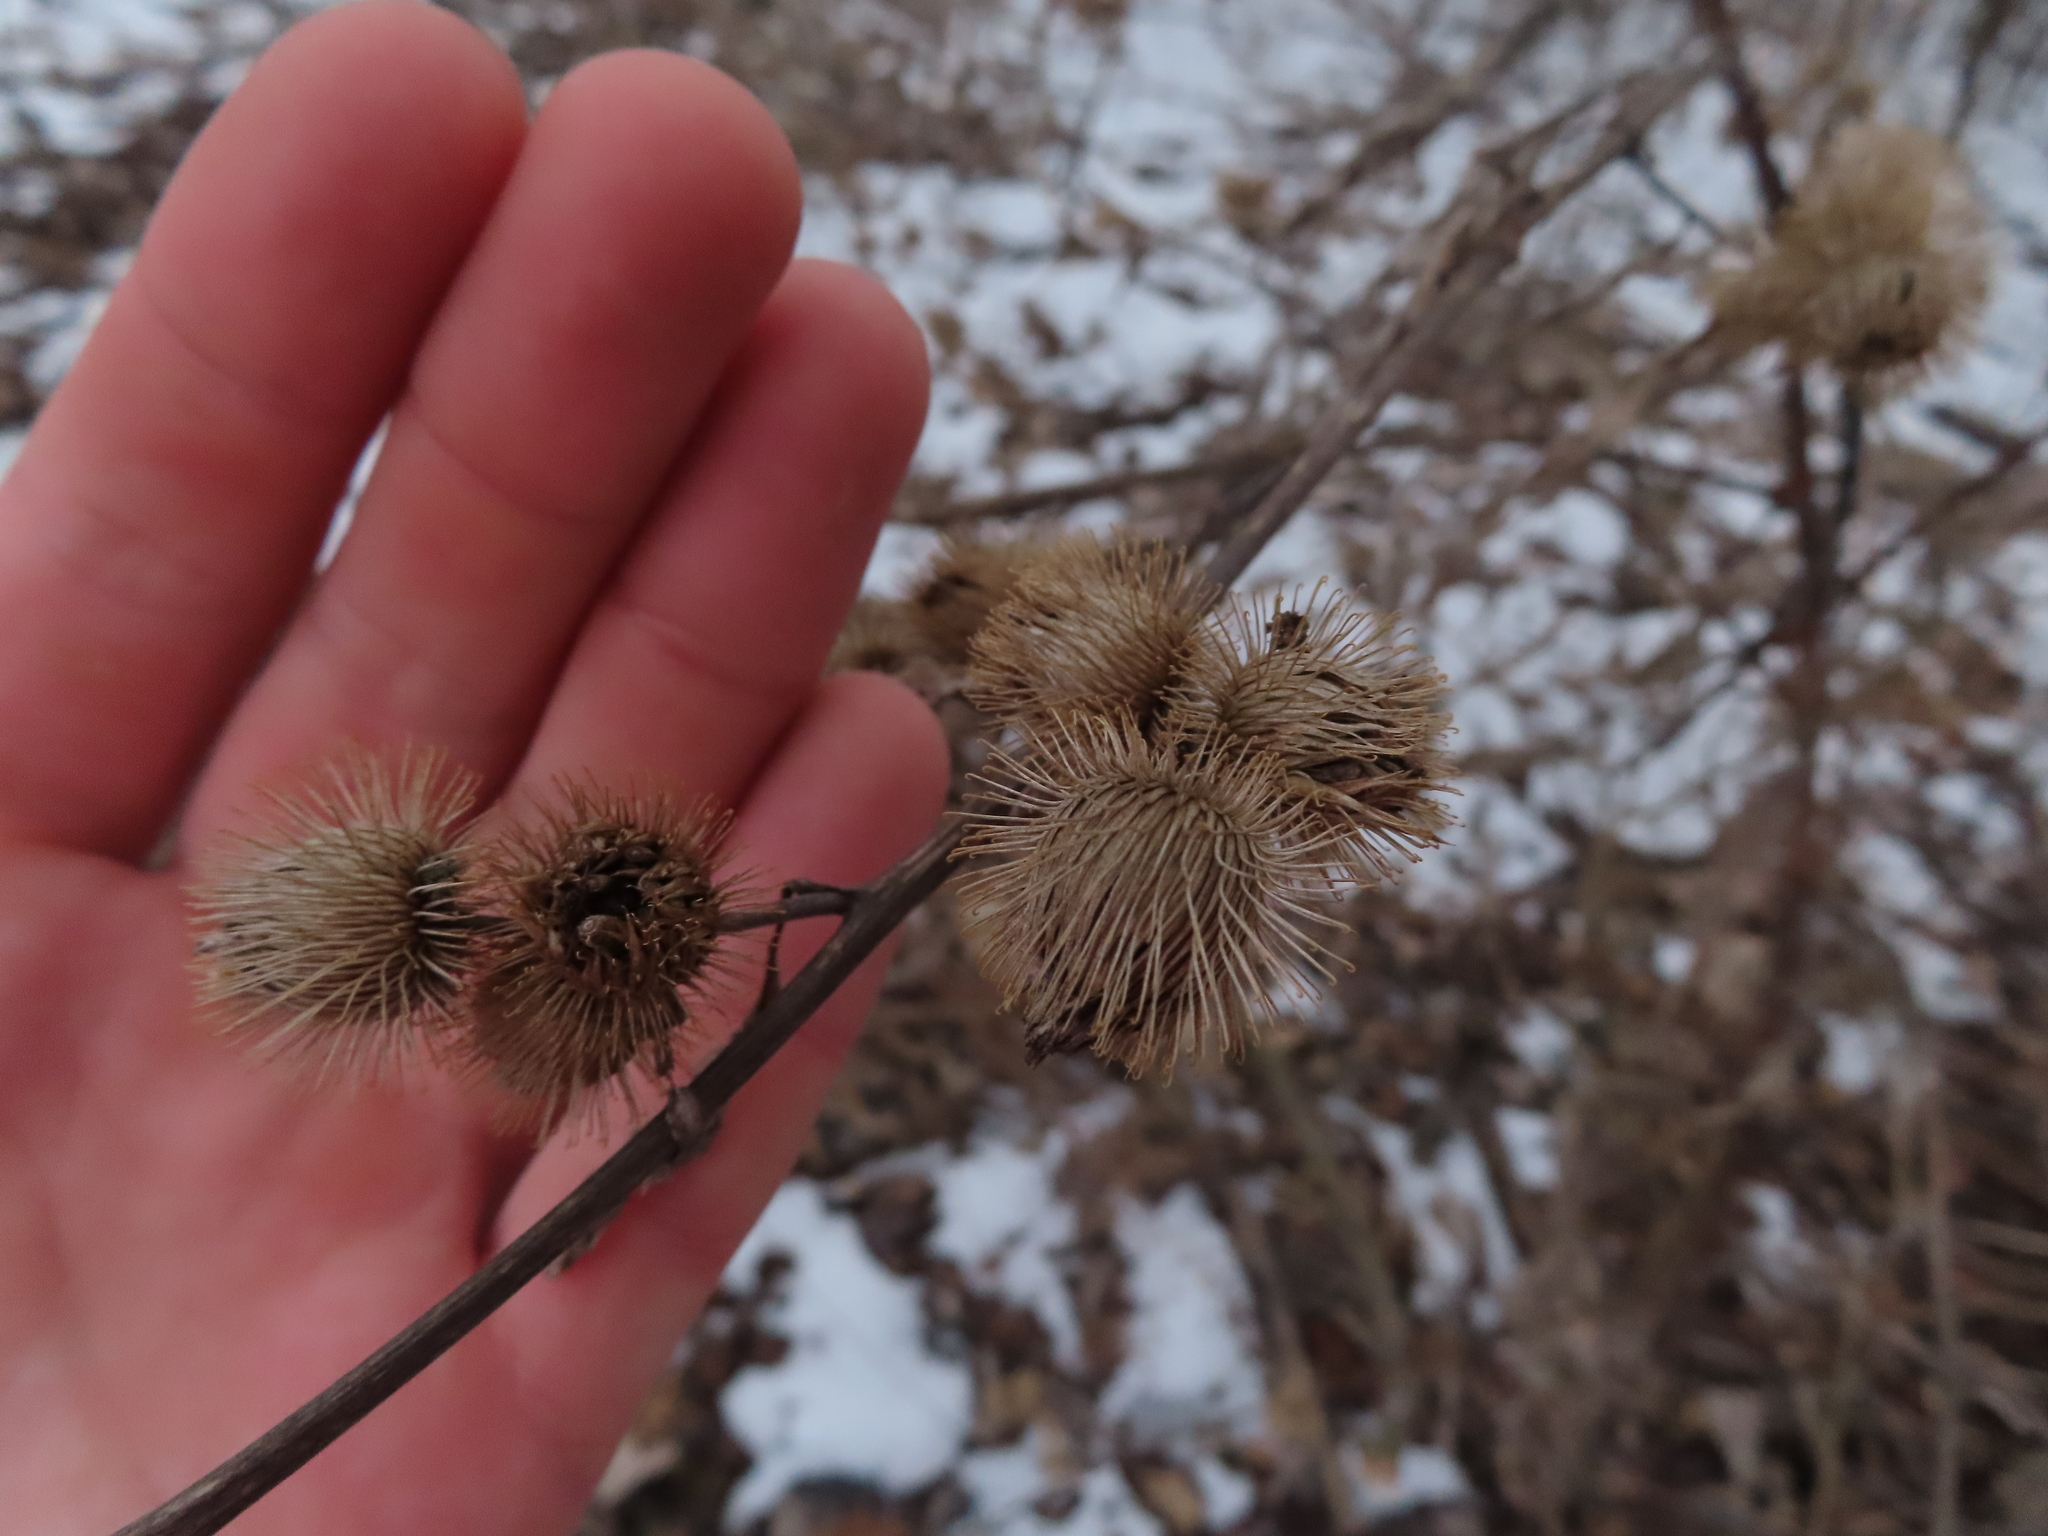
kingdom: Plantae
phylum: Tracheophyta
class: Magnoliopsida
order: Asterales
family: Asteraceae
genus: Arctium
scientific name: Arctium minus
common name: Lesser burdock
